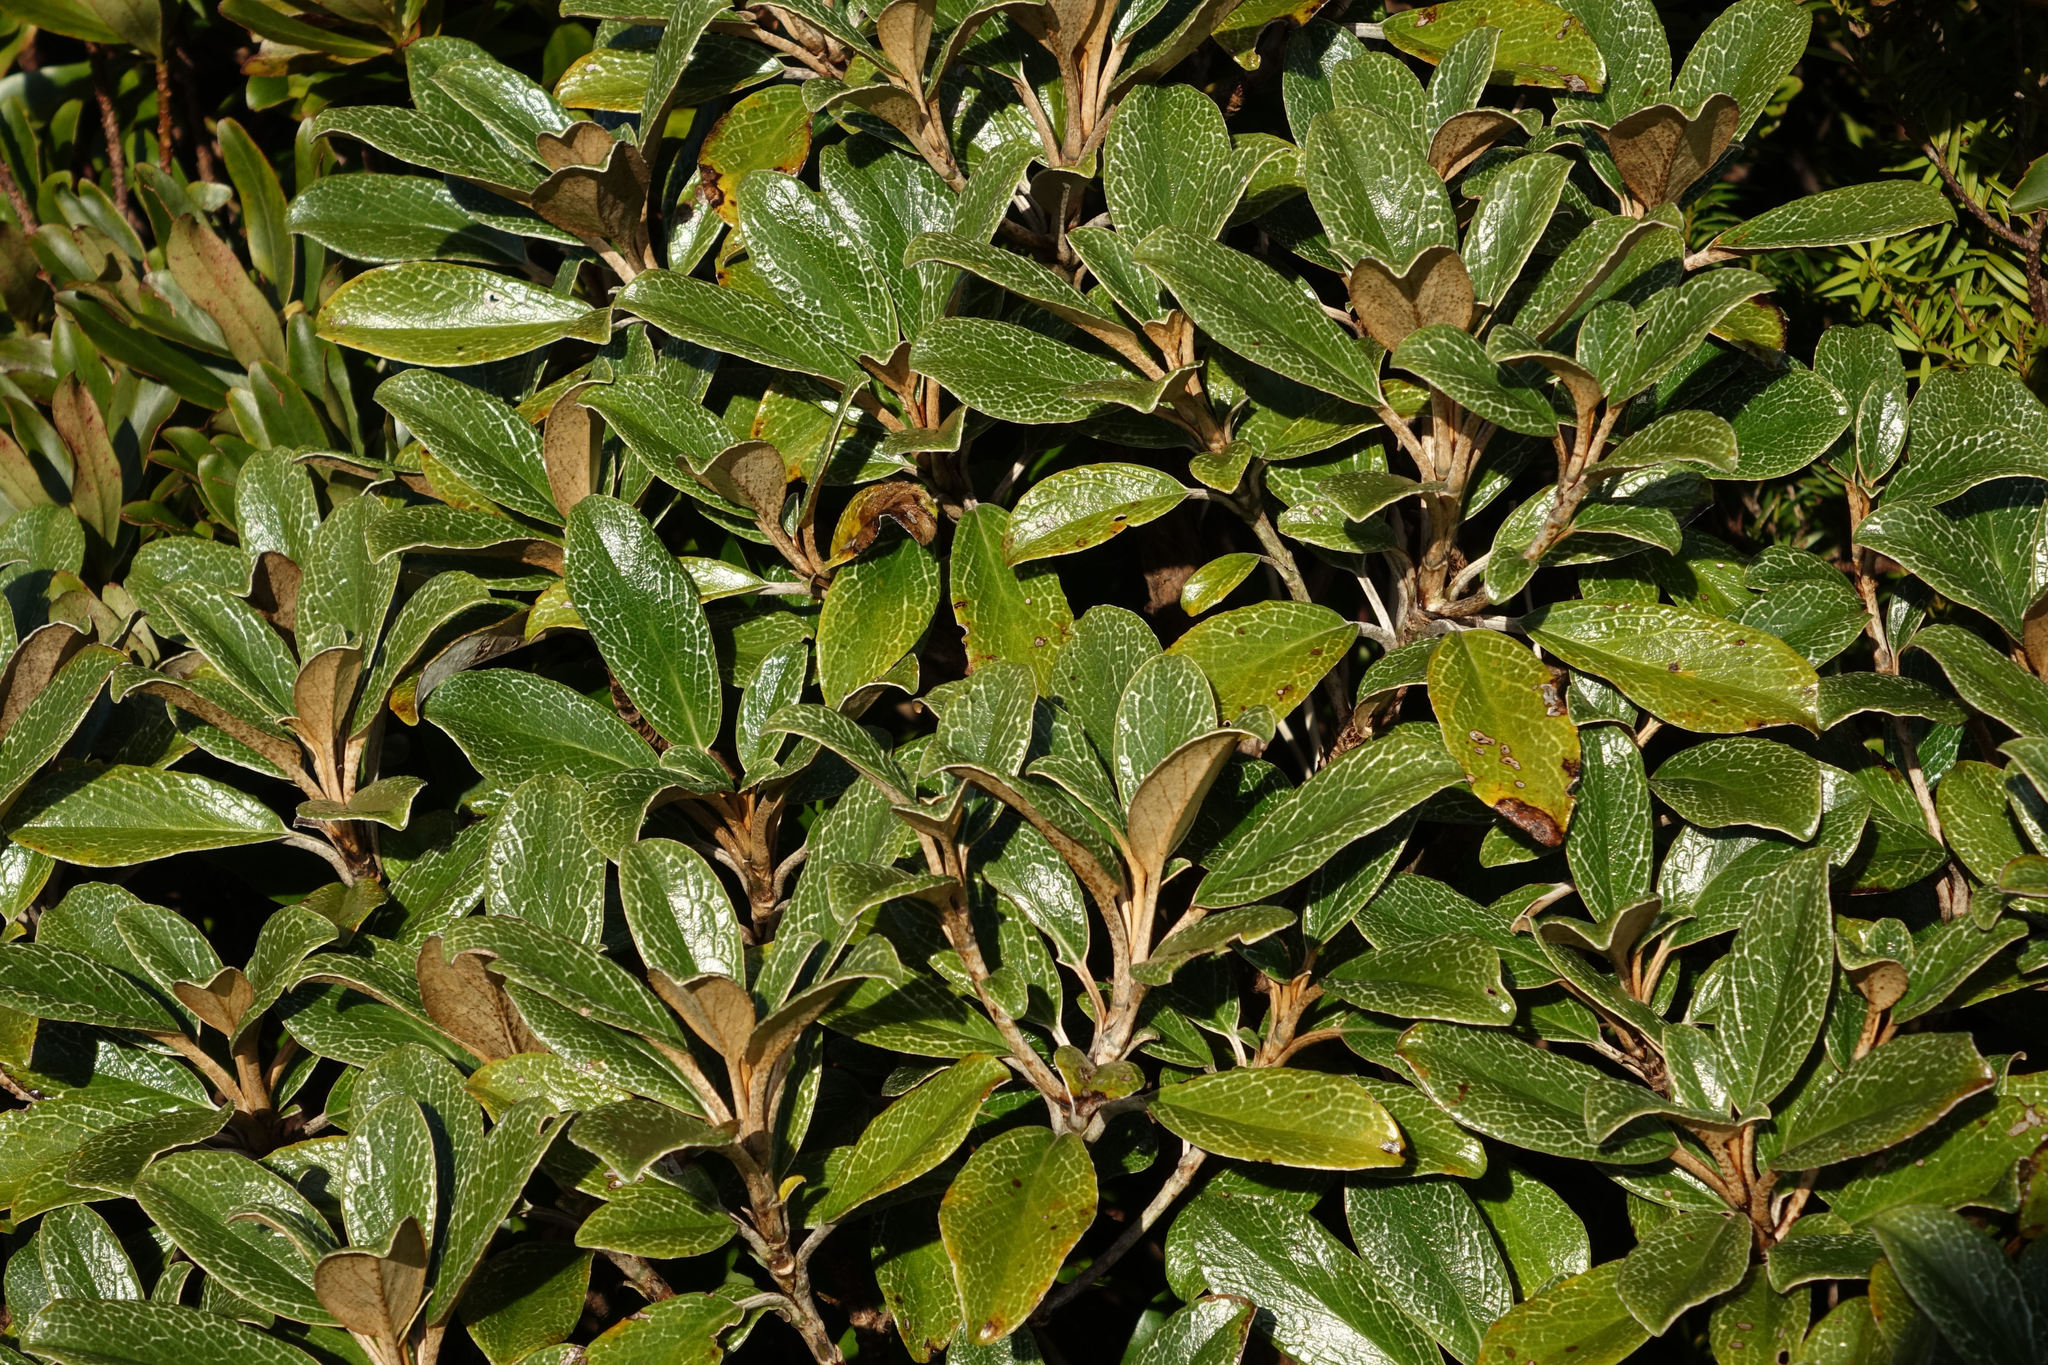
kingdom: Plantae
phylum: Tracheophyta
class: Magnoliopsida
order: Asterales
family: Asteraceae
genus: Brachyglottis
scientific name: Brachyglottis elaeagnifolia
